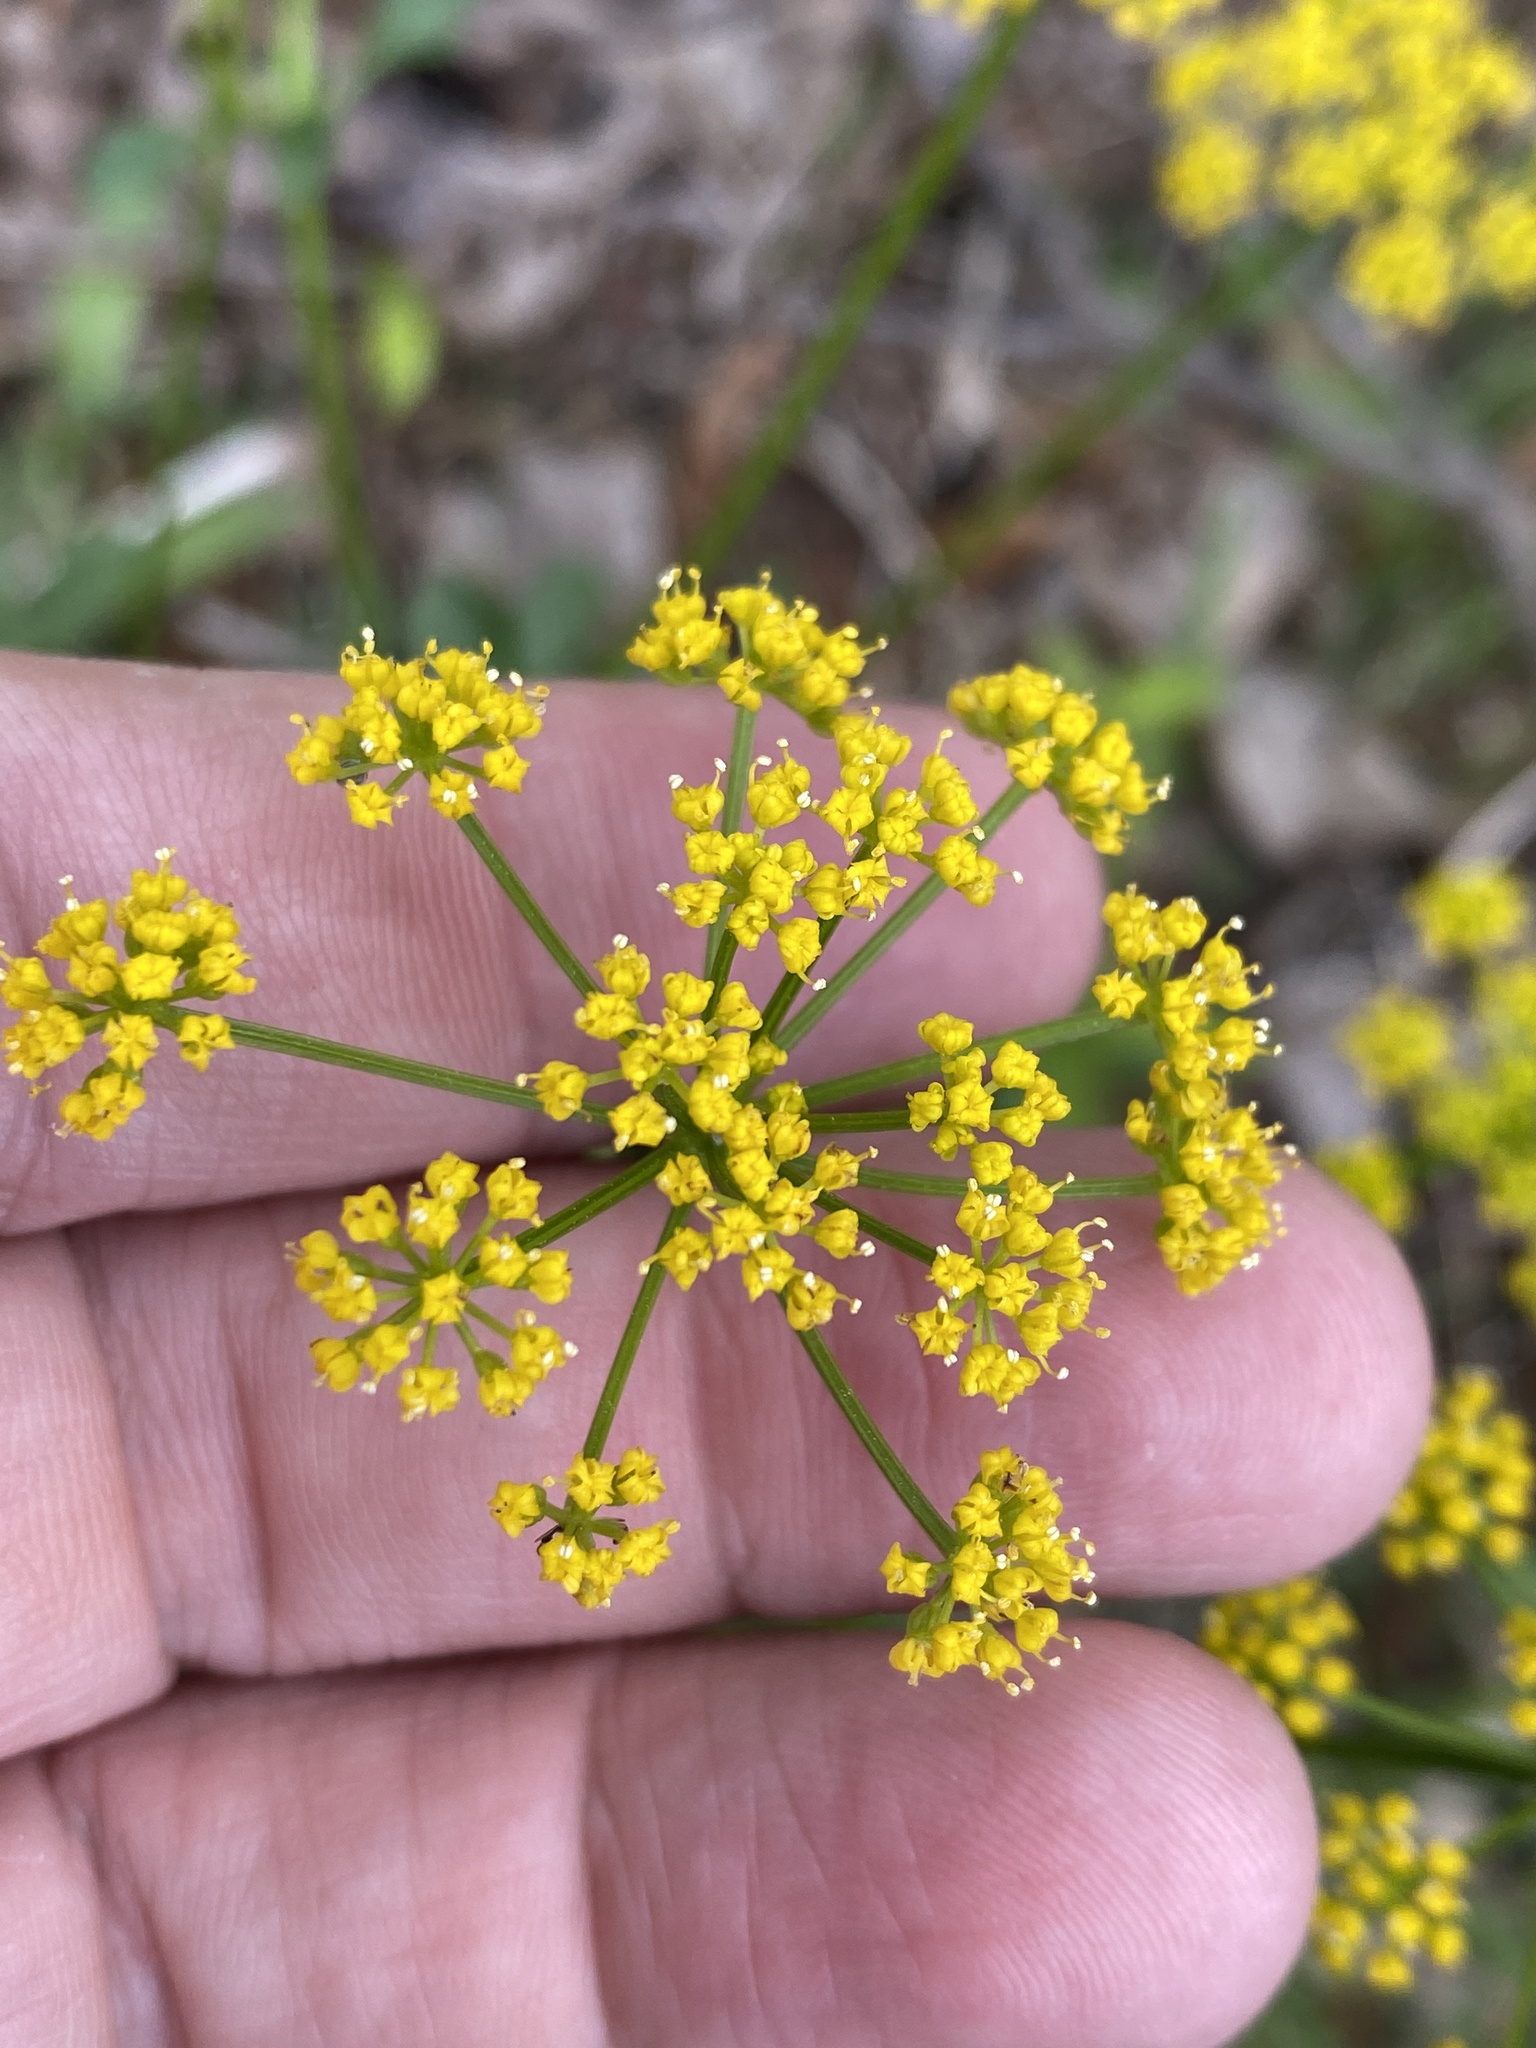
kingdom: Plantae
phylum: Tracheophyta
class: Magnoliopsida
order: Apiales
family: Apiaceae
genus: Zizia
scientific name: Zizia aurea
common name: Golden alexanders
